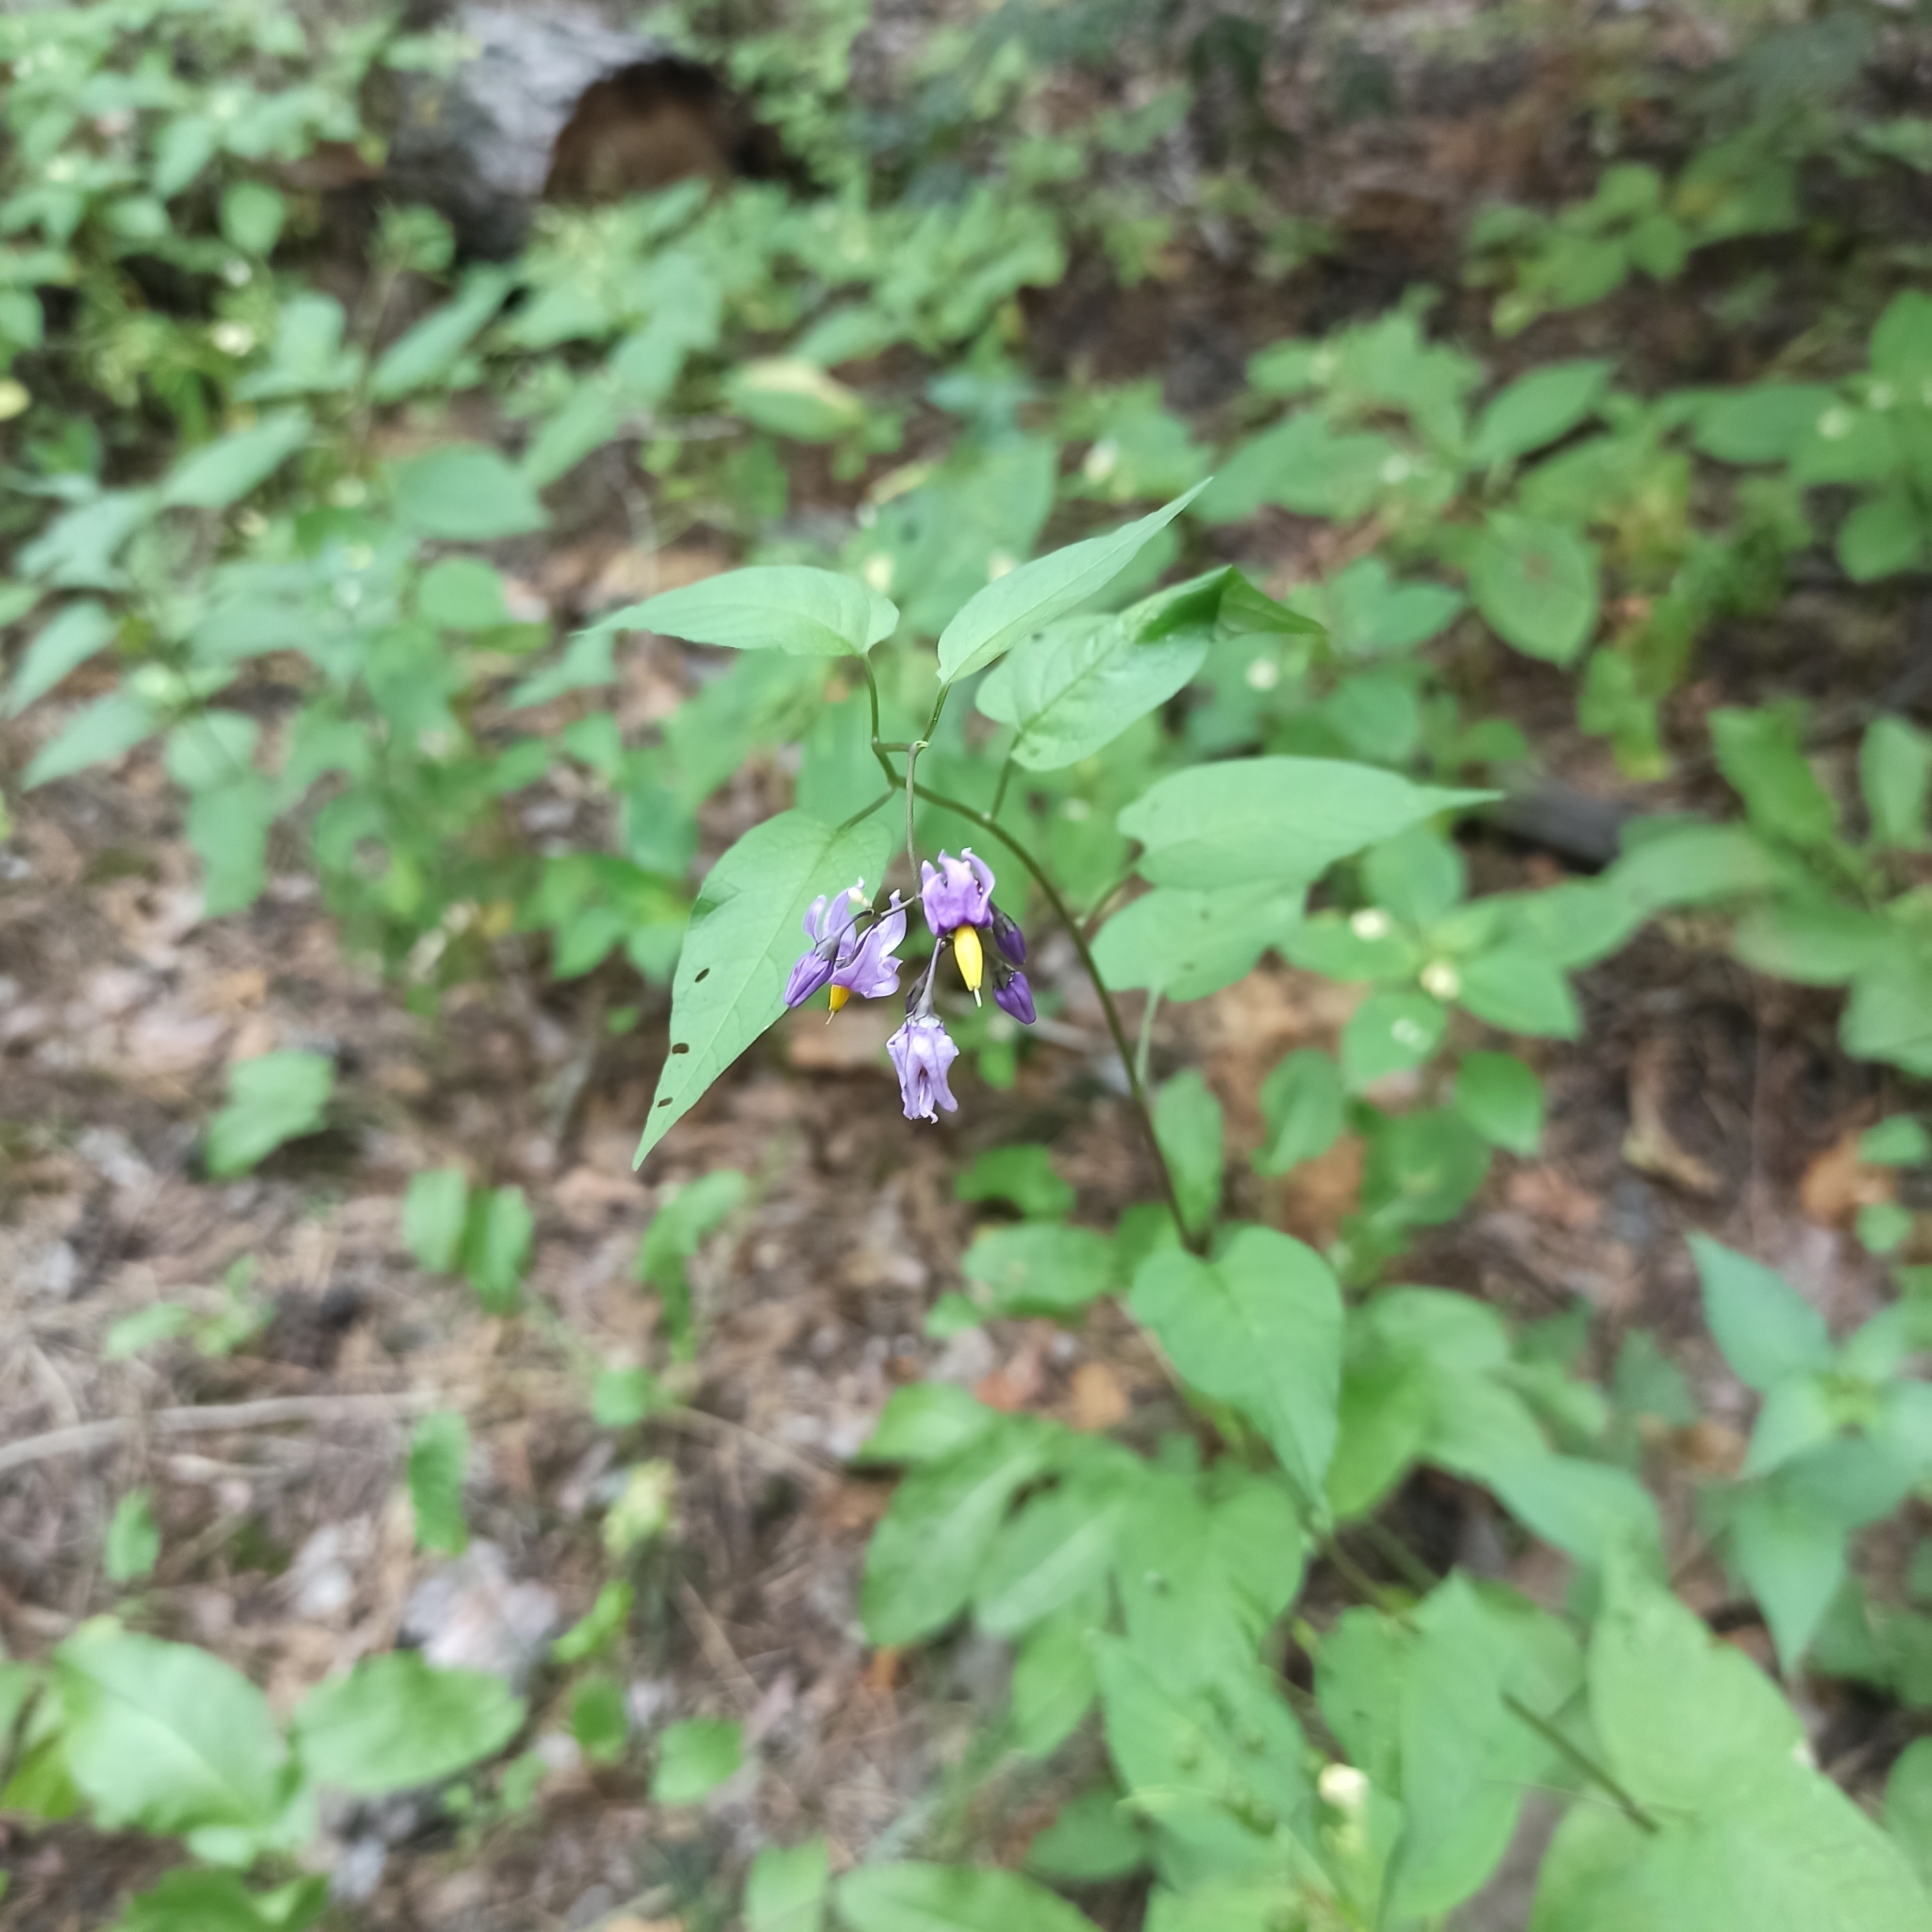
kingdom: Plantae
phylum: Tracheophyta
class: Magnoliopsida
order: Solanales
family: Solanaceae
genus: Solanum
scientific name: Solanum dulcamara
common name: Climbing nightshade
